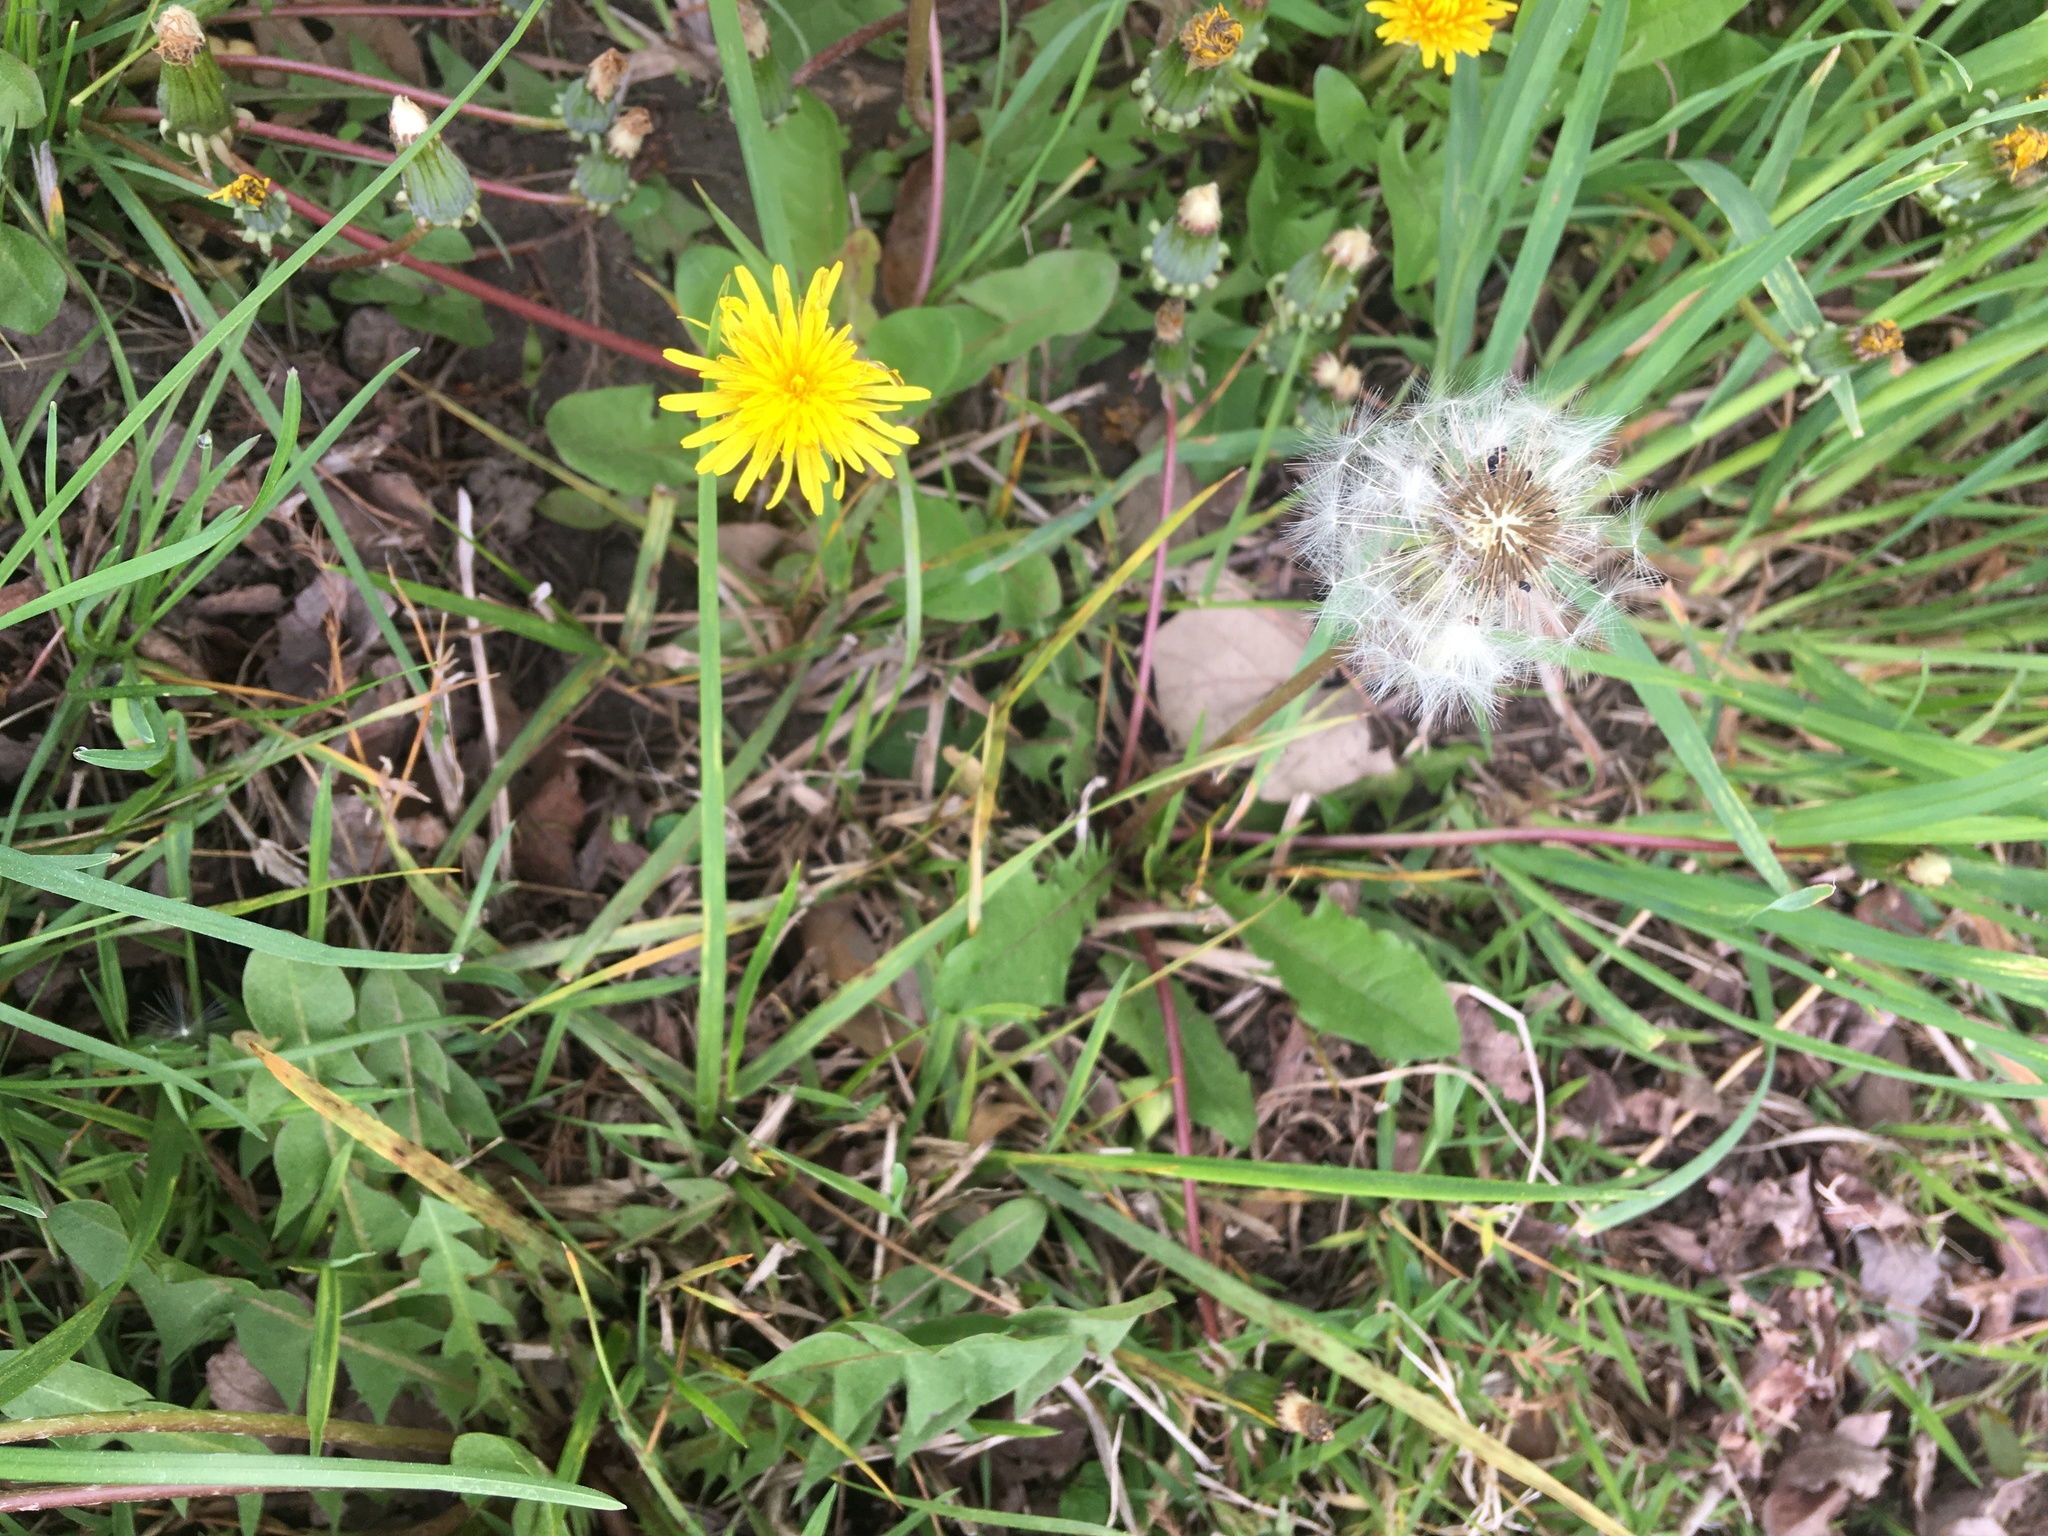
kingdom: Plantae
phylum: Tracheophyta
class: Magnoliopsida
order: Asterales
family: Asteraceae
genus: Taraxacum
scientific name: Taraxacum officinale
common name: Common dandelion
